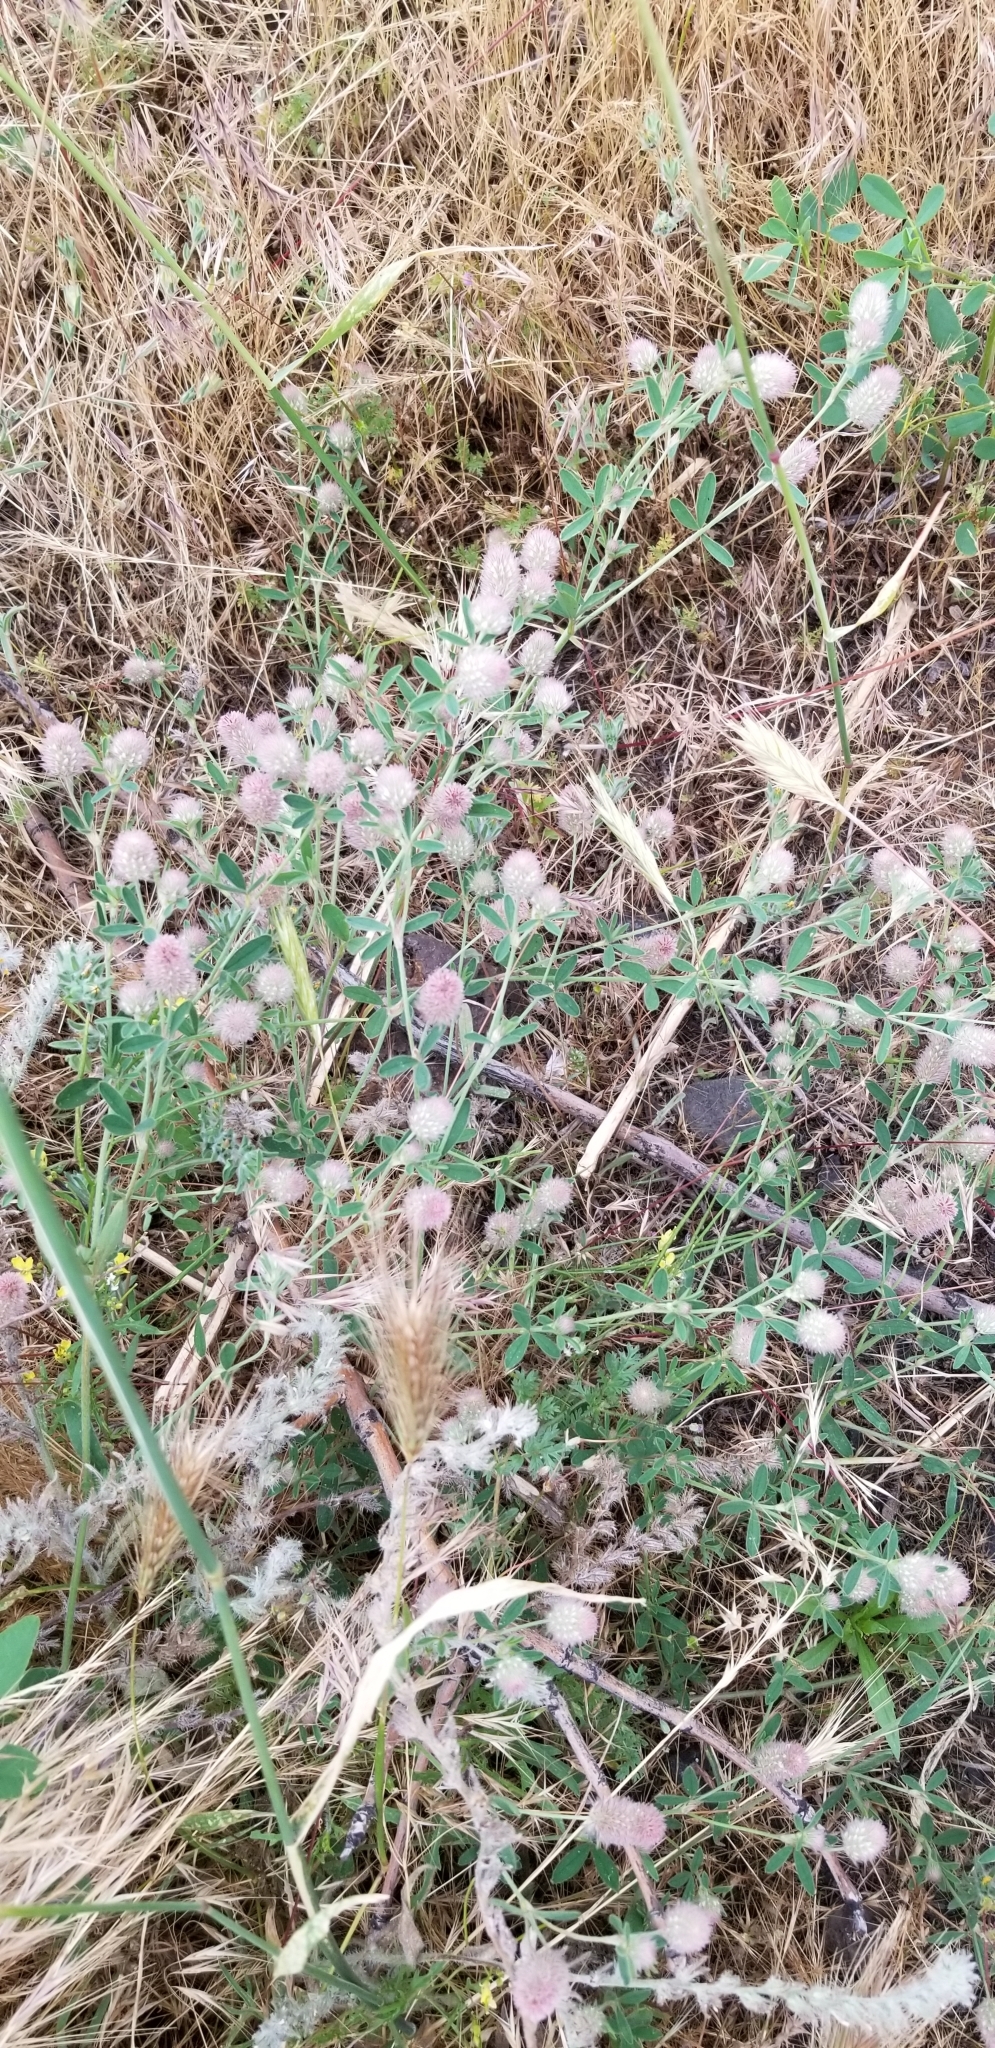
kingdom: Plantae
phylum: Tracheophyta
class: Magnoliopsida
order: Fabales
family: Fabaceae
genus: Trifolium
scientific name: Trifolium arvense
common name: Hare's-foot clover
